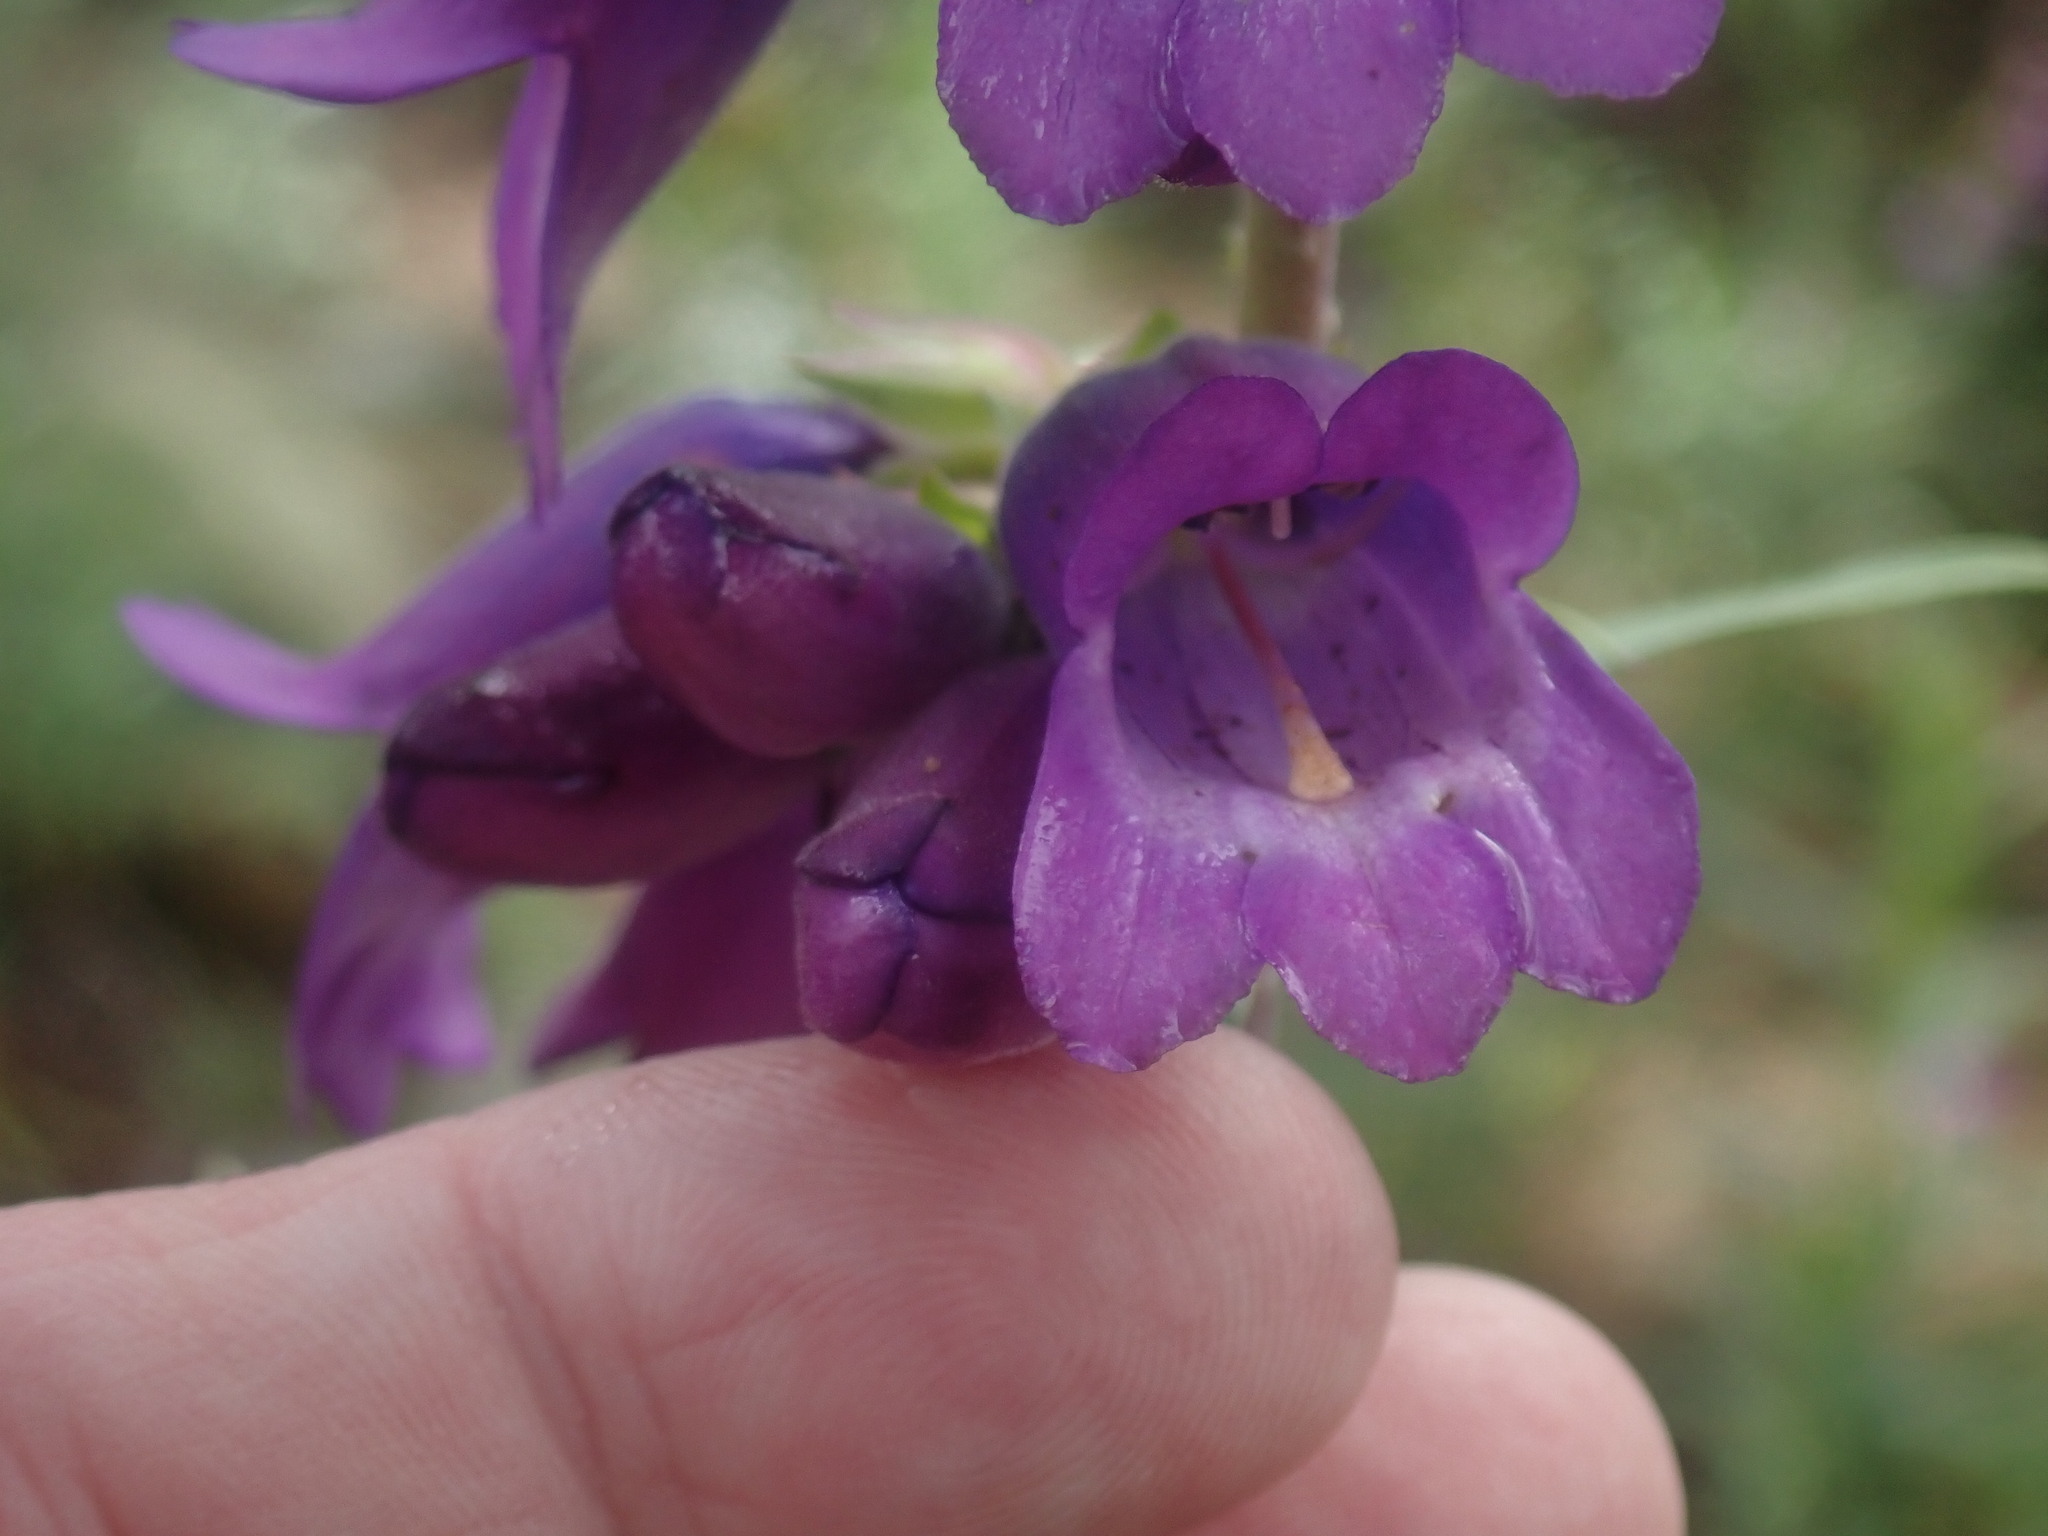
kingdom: Plantae
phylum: Tracheophyta
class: Magnoliopsida
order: Lamiales
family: Plantaginaceae
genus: Penstemon
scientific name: Penstemon gentianoides
